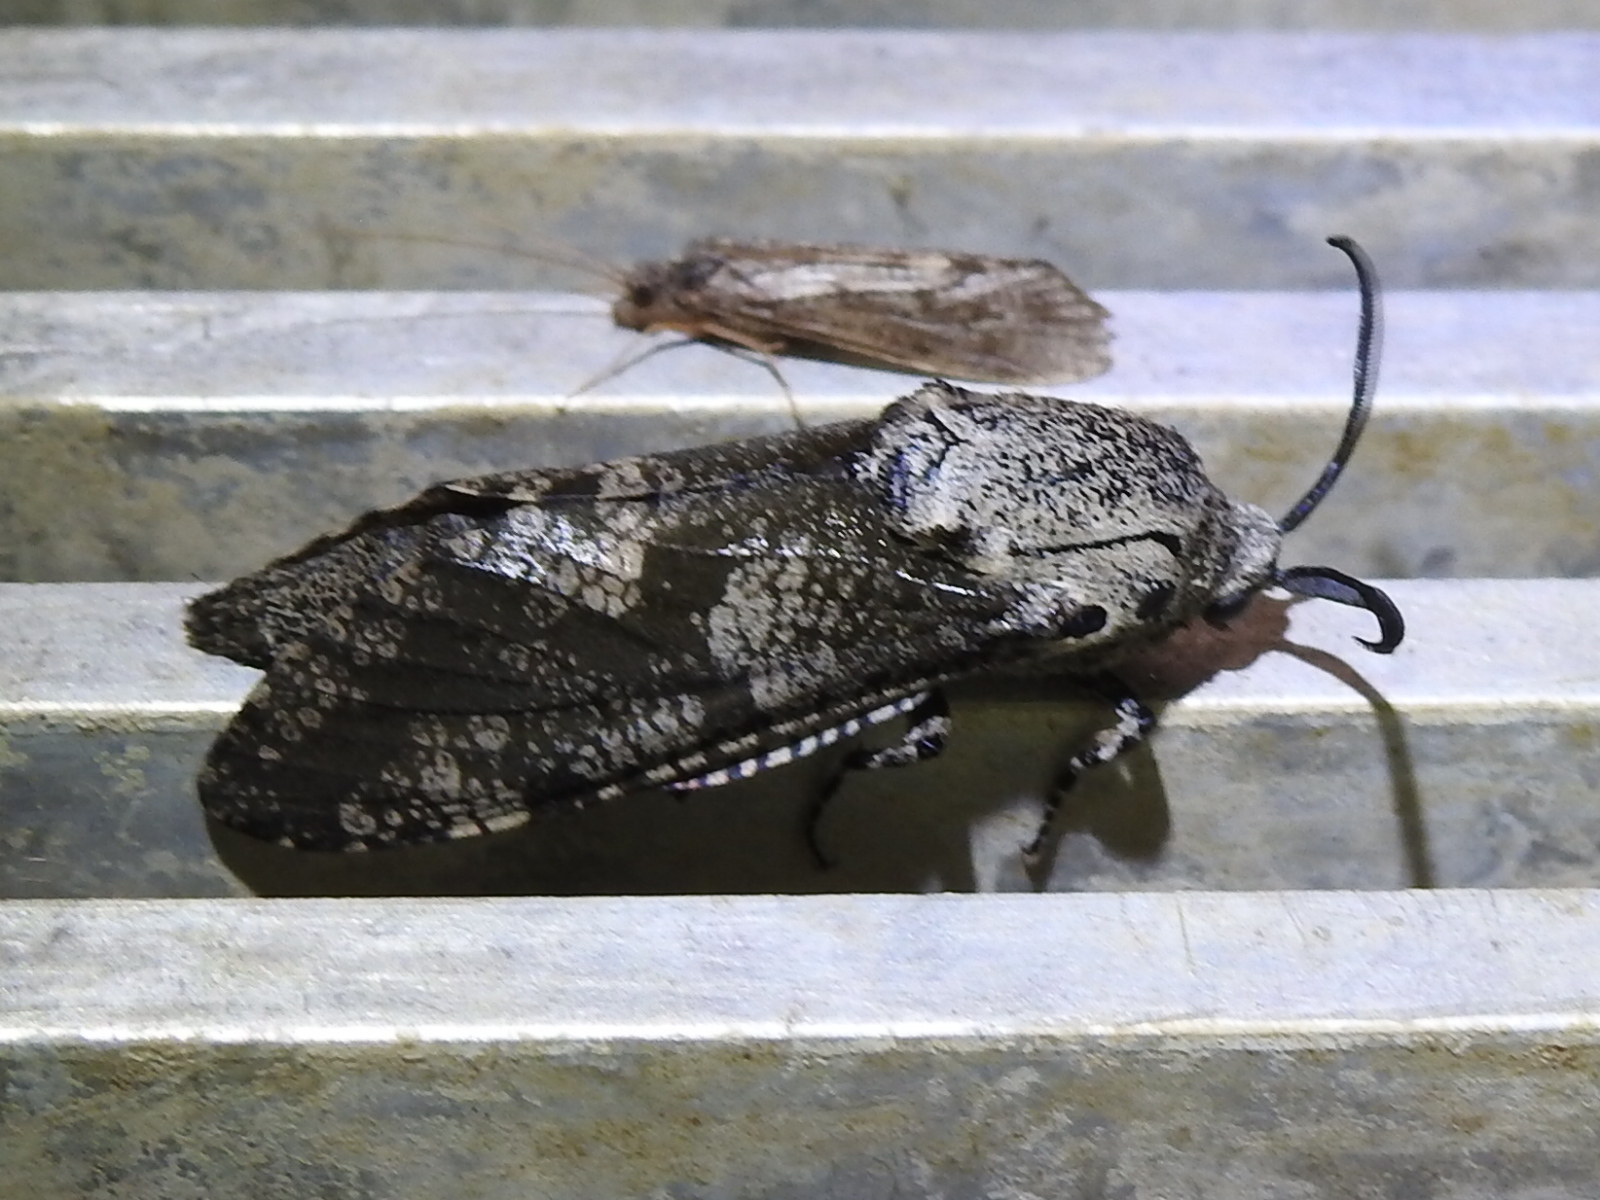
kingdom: Animalia
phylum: Arthropoda
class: Insecta
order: Lepidoptera
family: Cossidae
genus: Prionoxystus
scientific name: Prionoxystus robiniae
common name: Carpenterworm
